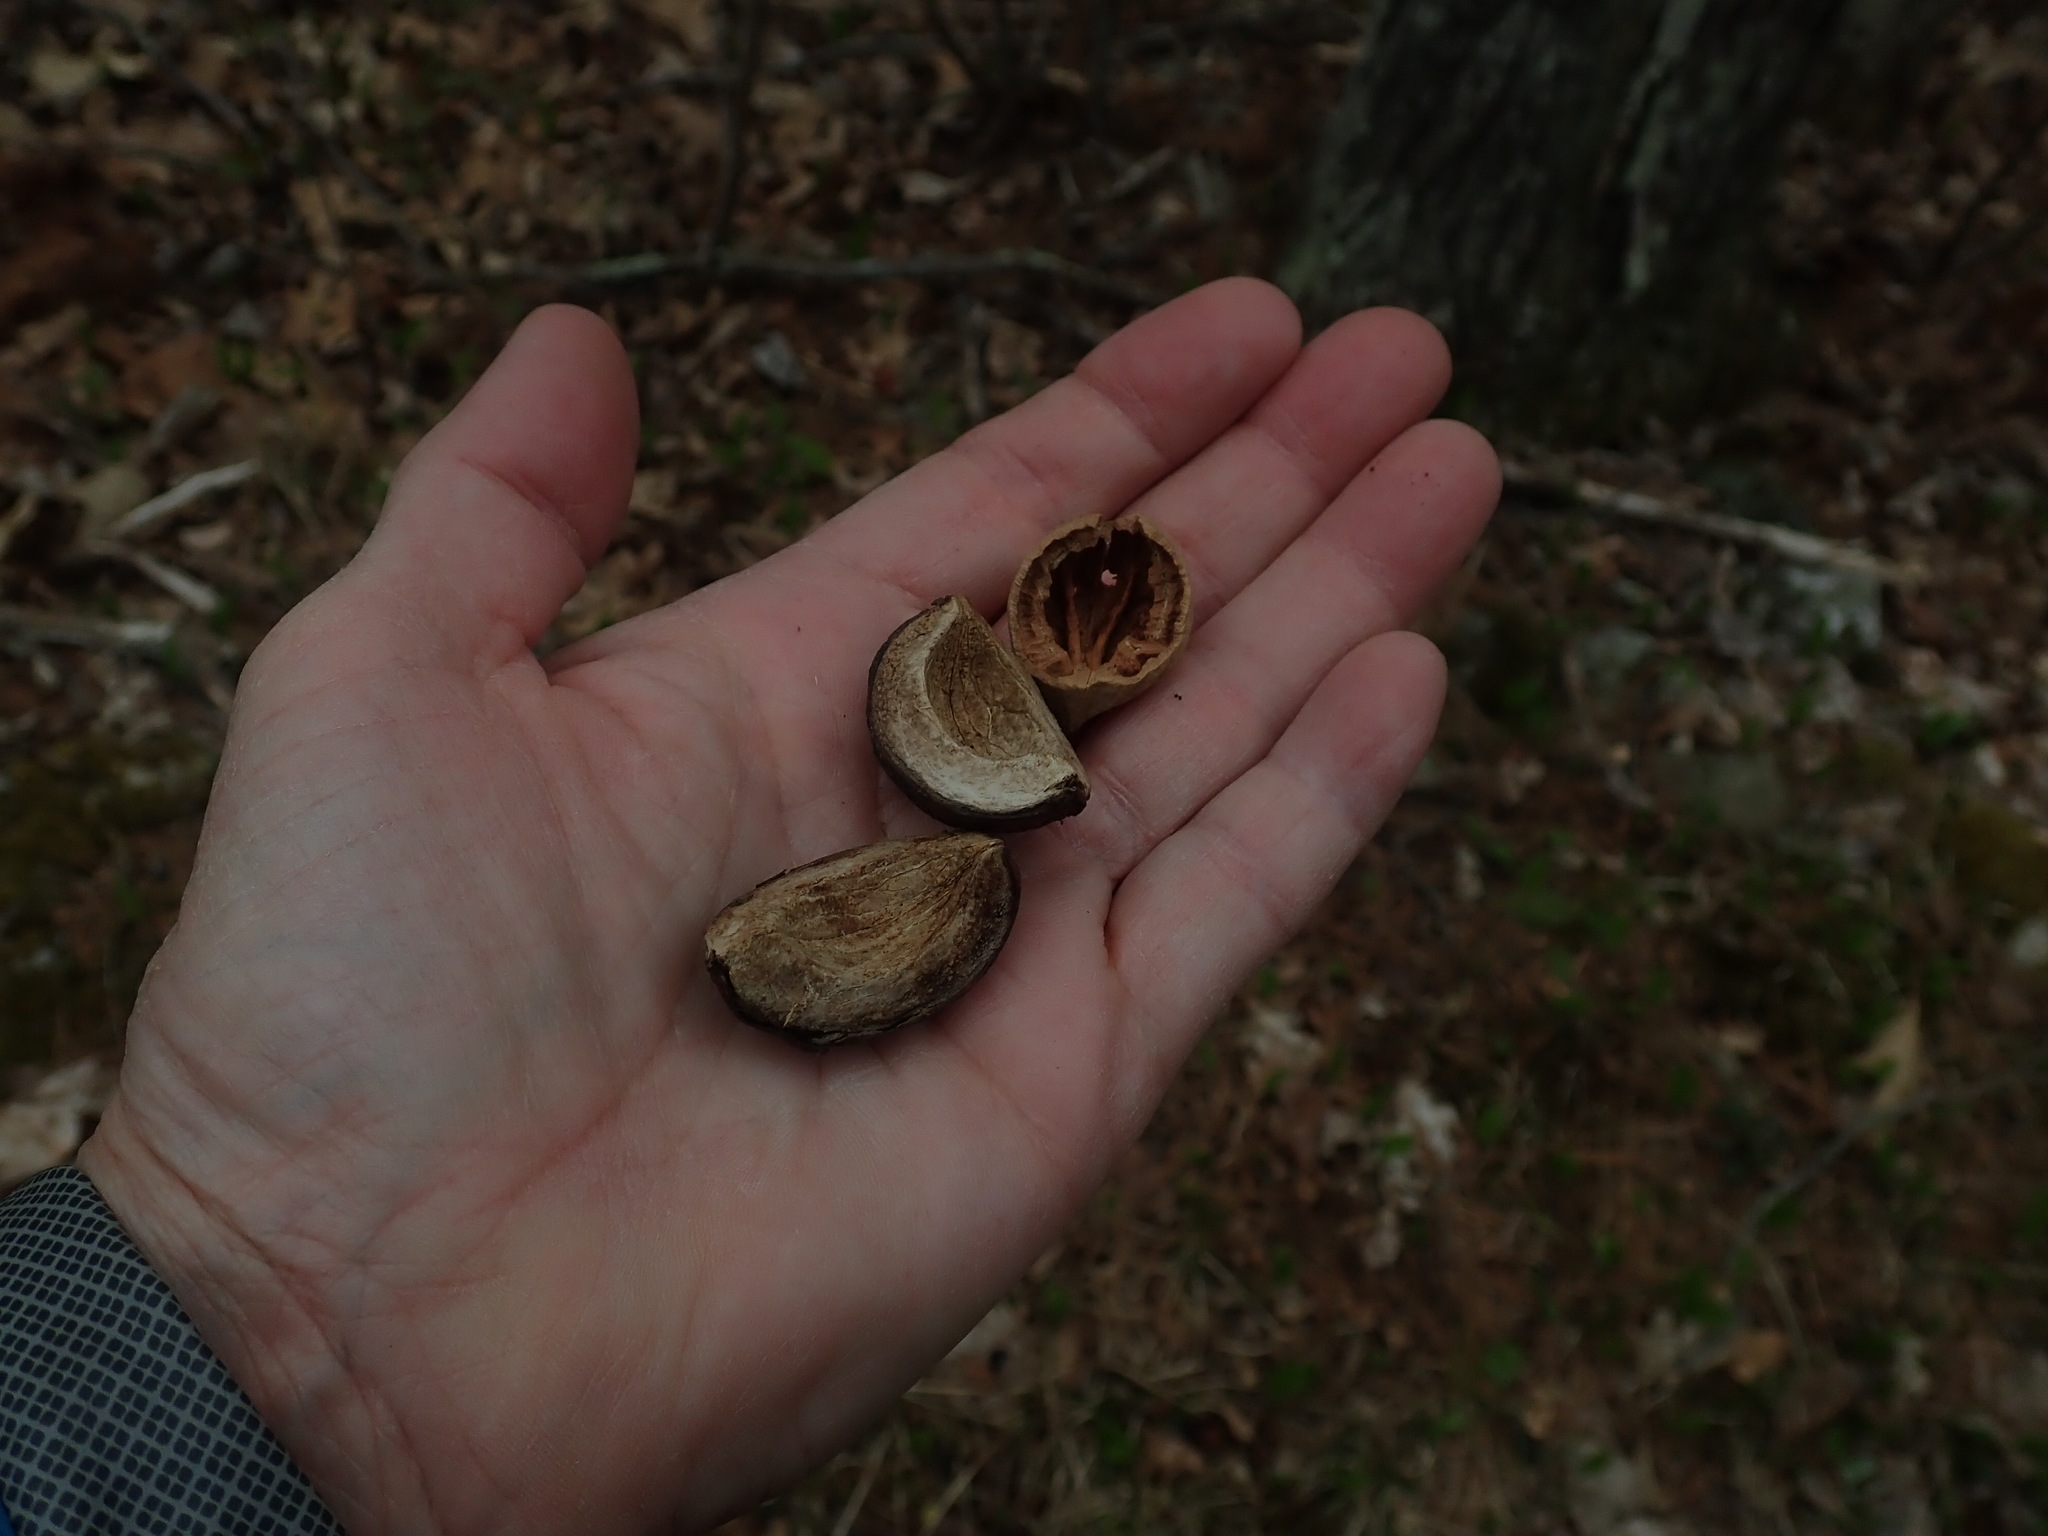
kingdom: Plantae
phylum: Tracheophyta
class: Magnoliopsida
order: Fagales
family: Juglandaceae
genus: Carya
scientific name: Carya ovata
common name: Shagbark hickory
